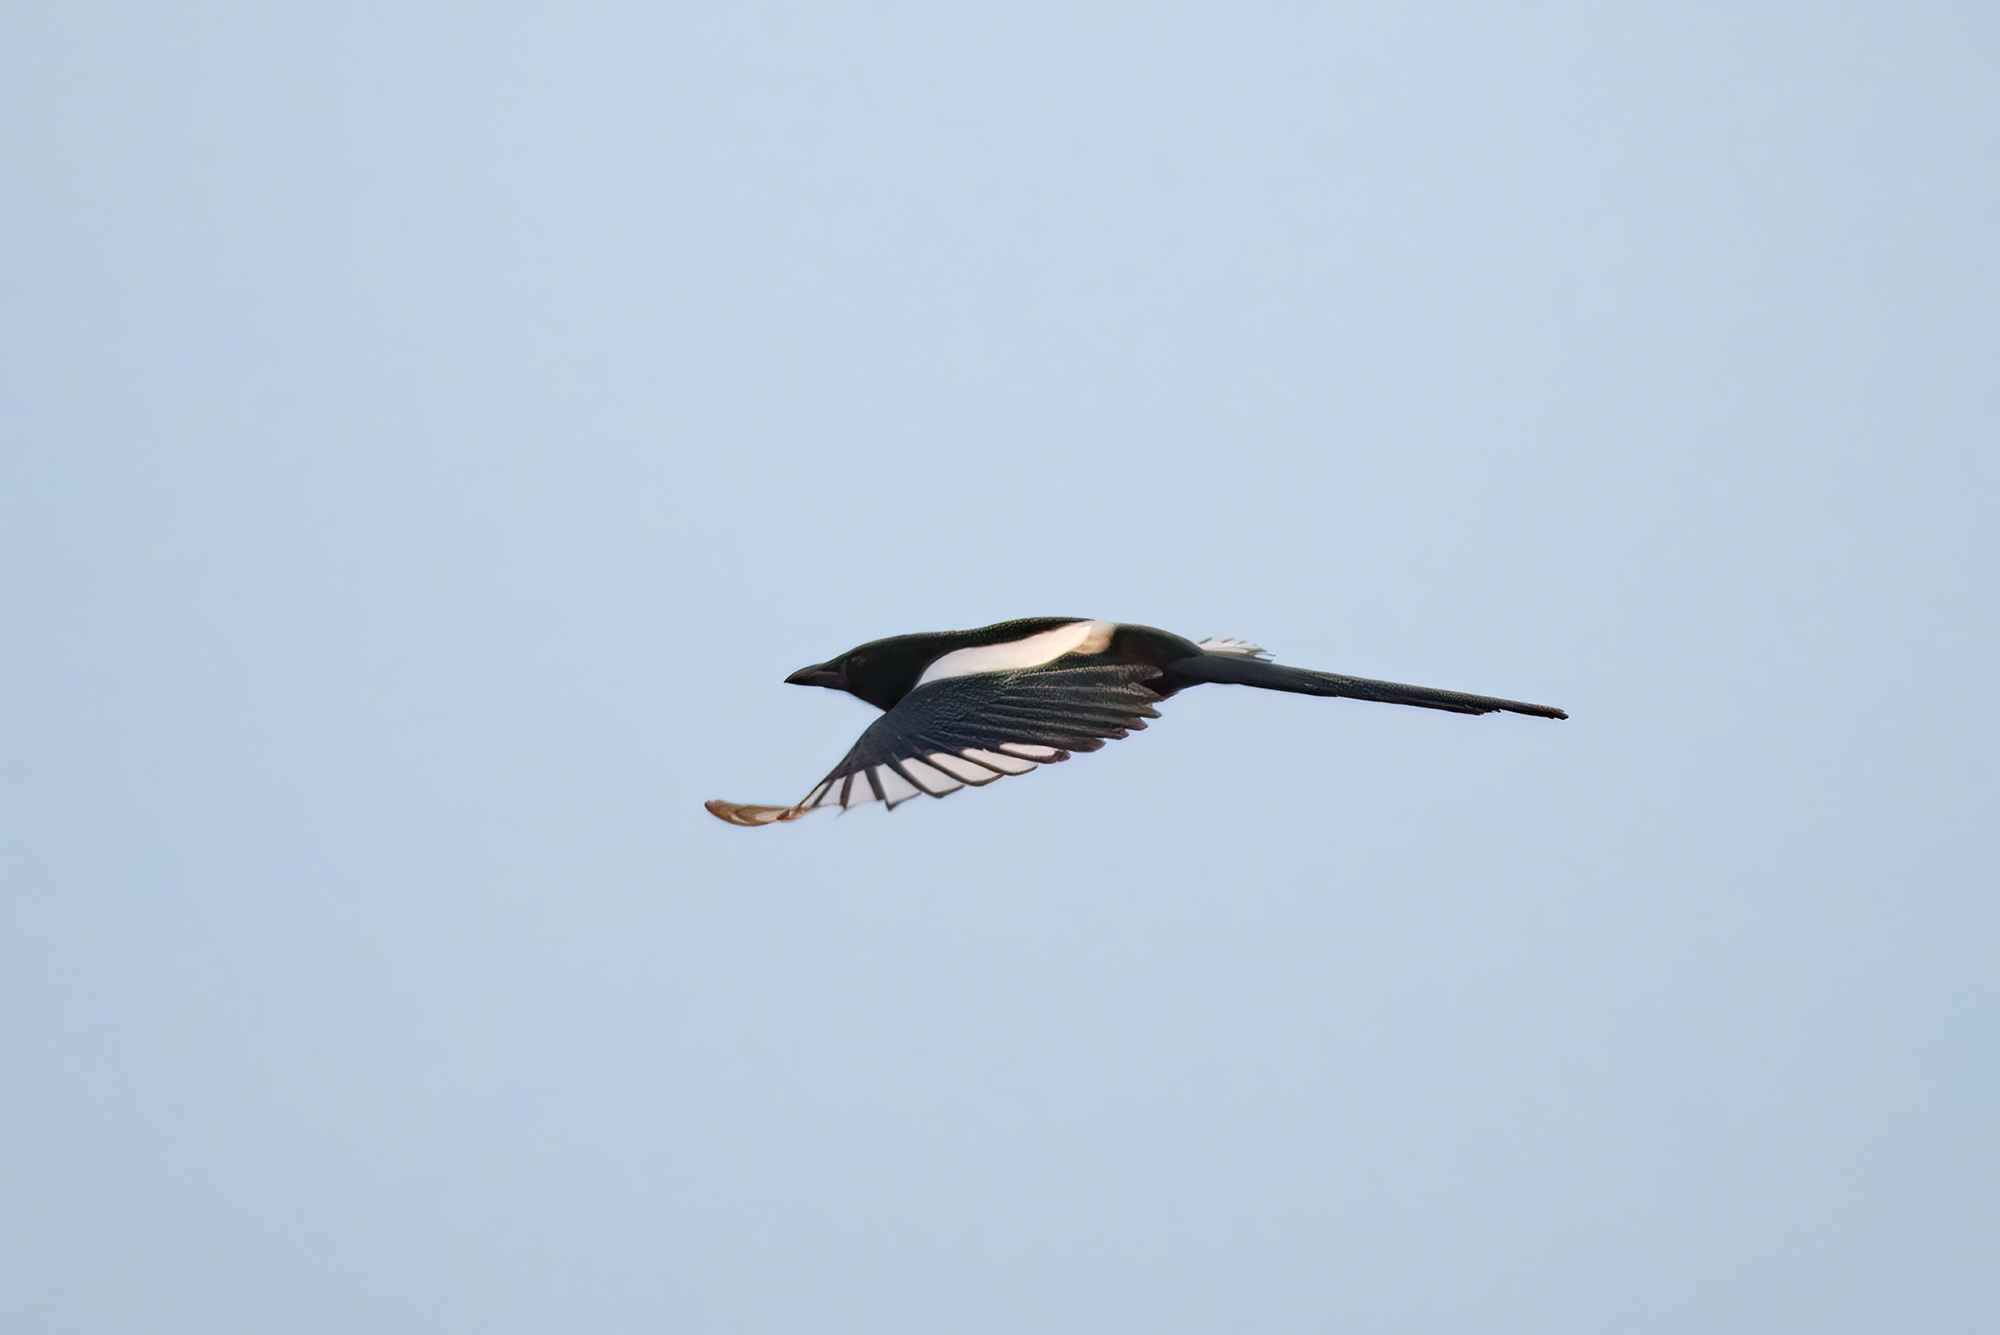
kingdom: Animalia
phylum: Chordata
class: Aves
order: Passeriformes
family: Corvidae
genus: Pica
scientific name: Pica pica
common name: Eurasian magpie
